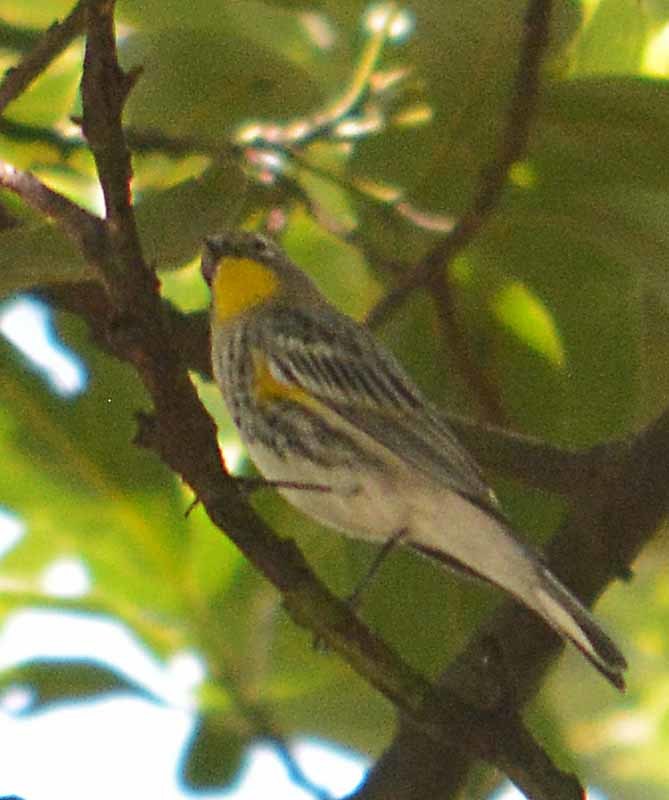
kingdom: Animalia
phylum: Chordata
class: Aves
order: Passeriformes
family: Parulidae
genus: Setophaga
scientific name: Setophaga coronata
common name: Myrtle warbler
